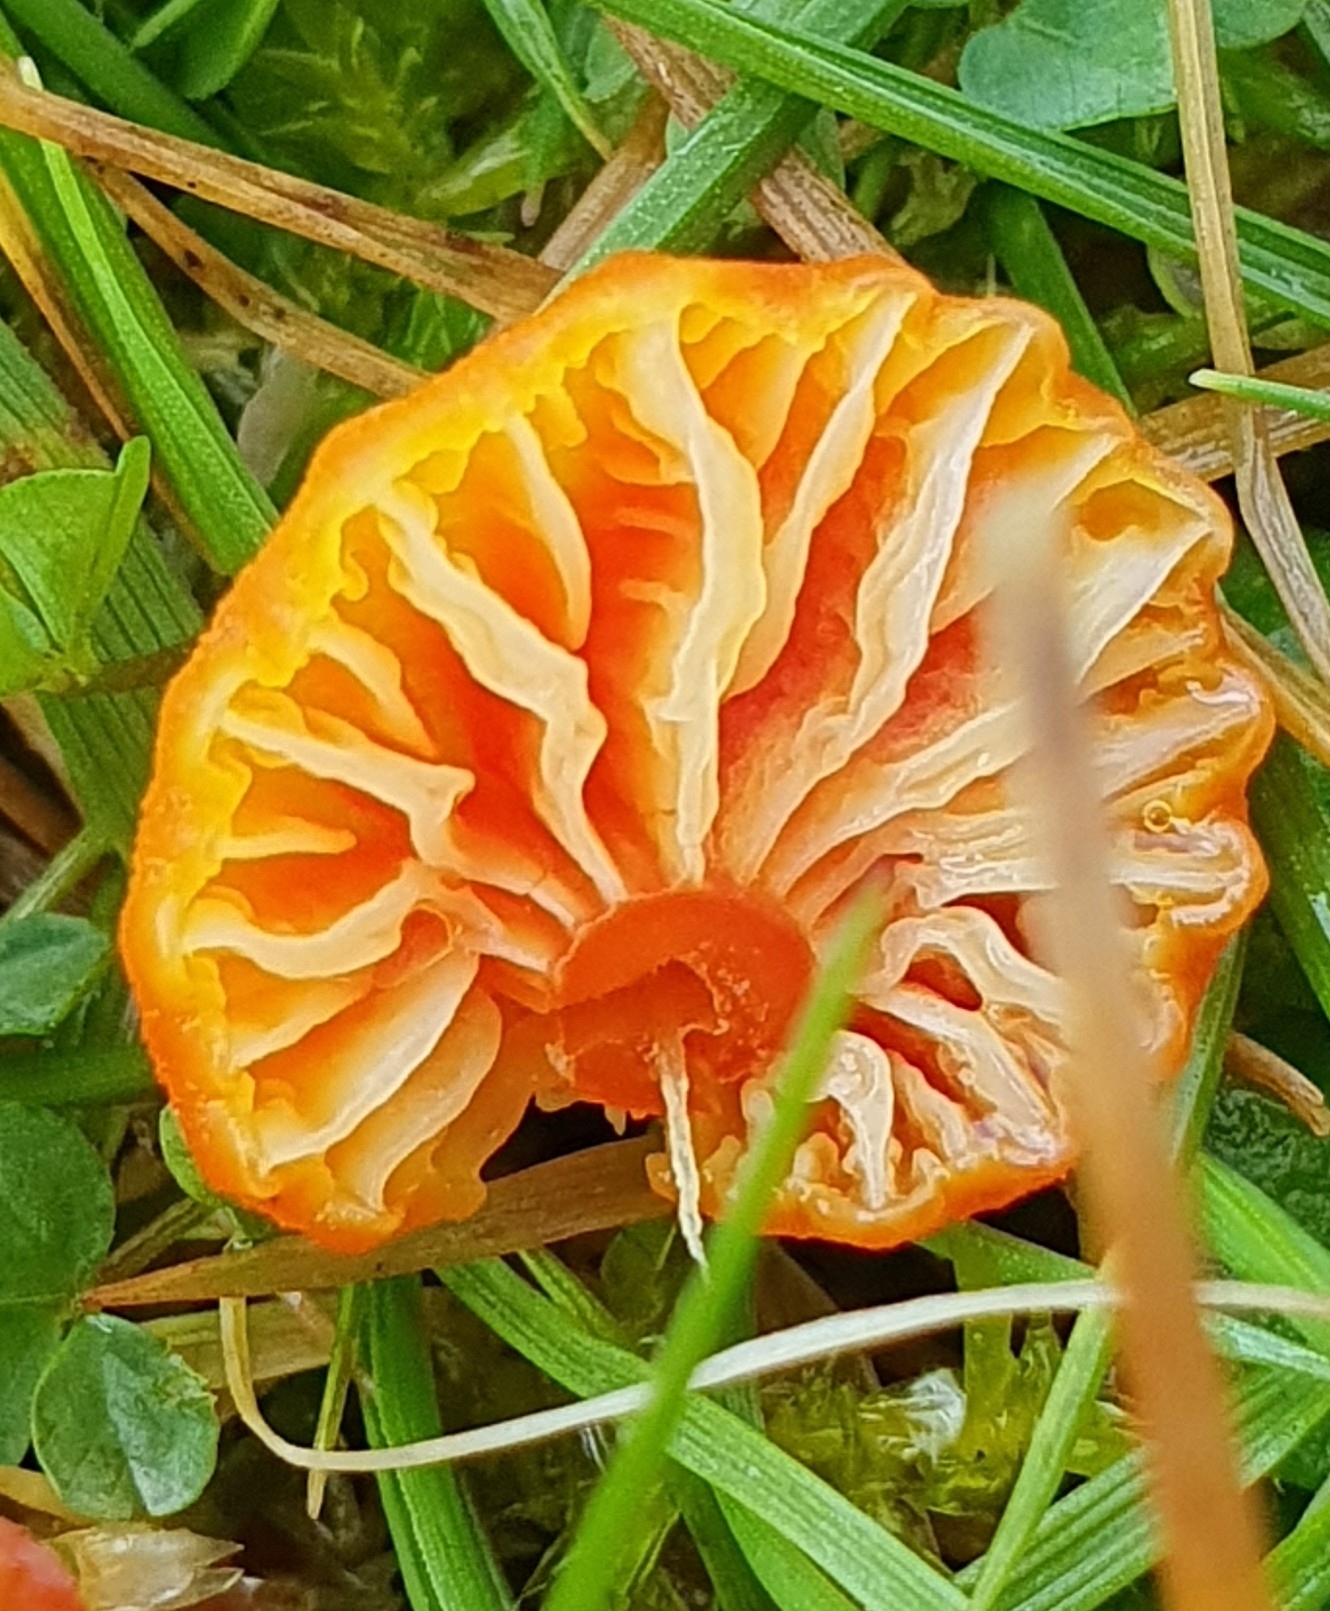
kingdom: Fungi
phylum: Basidiomycota
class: Agaricomycetes
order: Agaricales
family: Hygrophoraceae
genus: Hygrocybe
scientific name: Hygrocybe insipida
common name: Spangle waxcap
